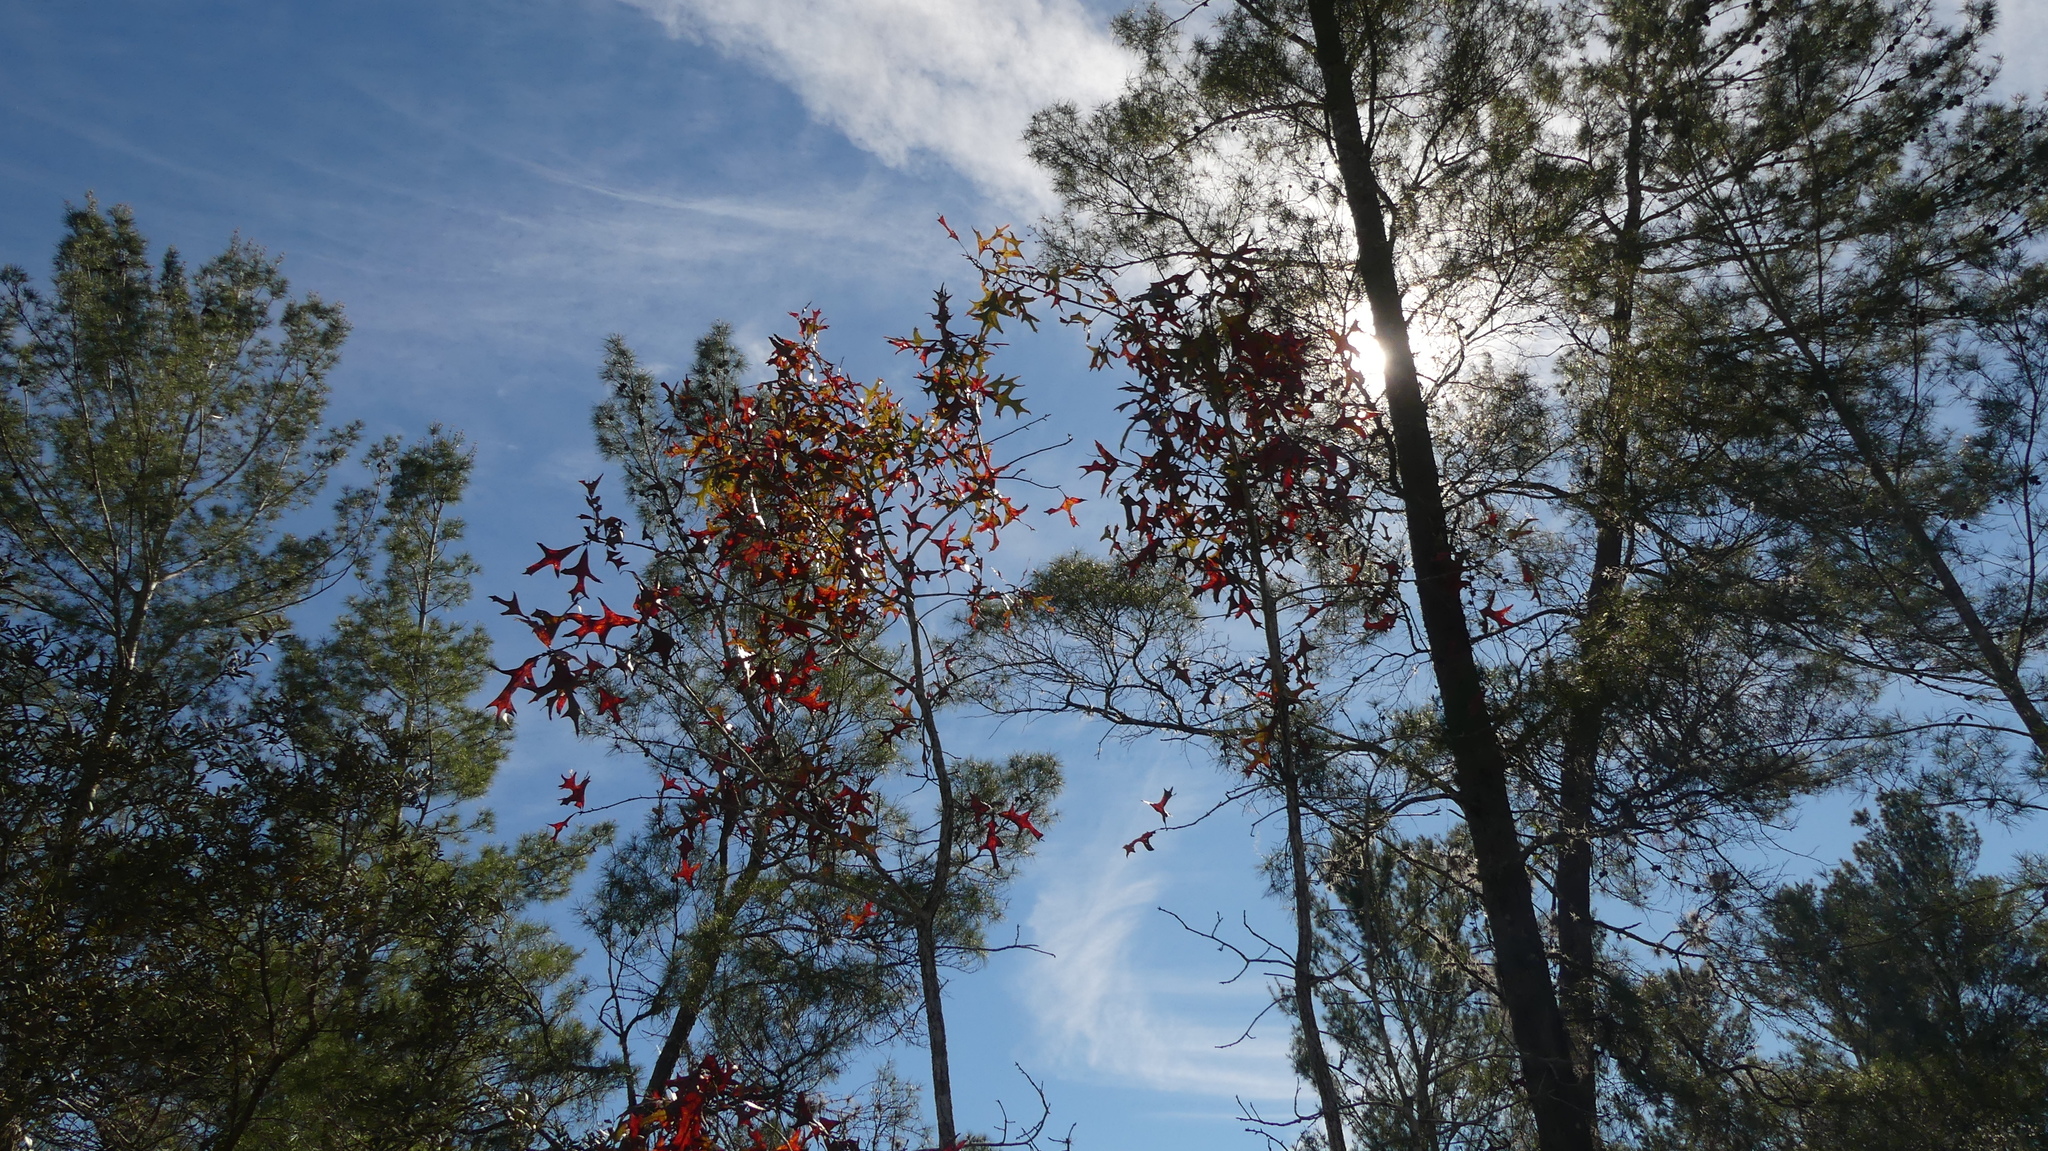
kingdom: Plantae
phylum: Tracheophyta
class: Magnoliopsida
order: Fagales
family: Fagaceae
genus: Quercus
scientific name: Quercus laevis
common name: Turkey oak
